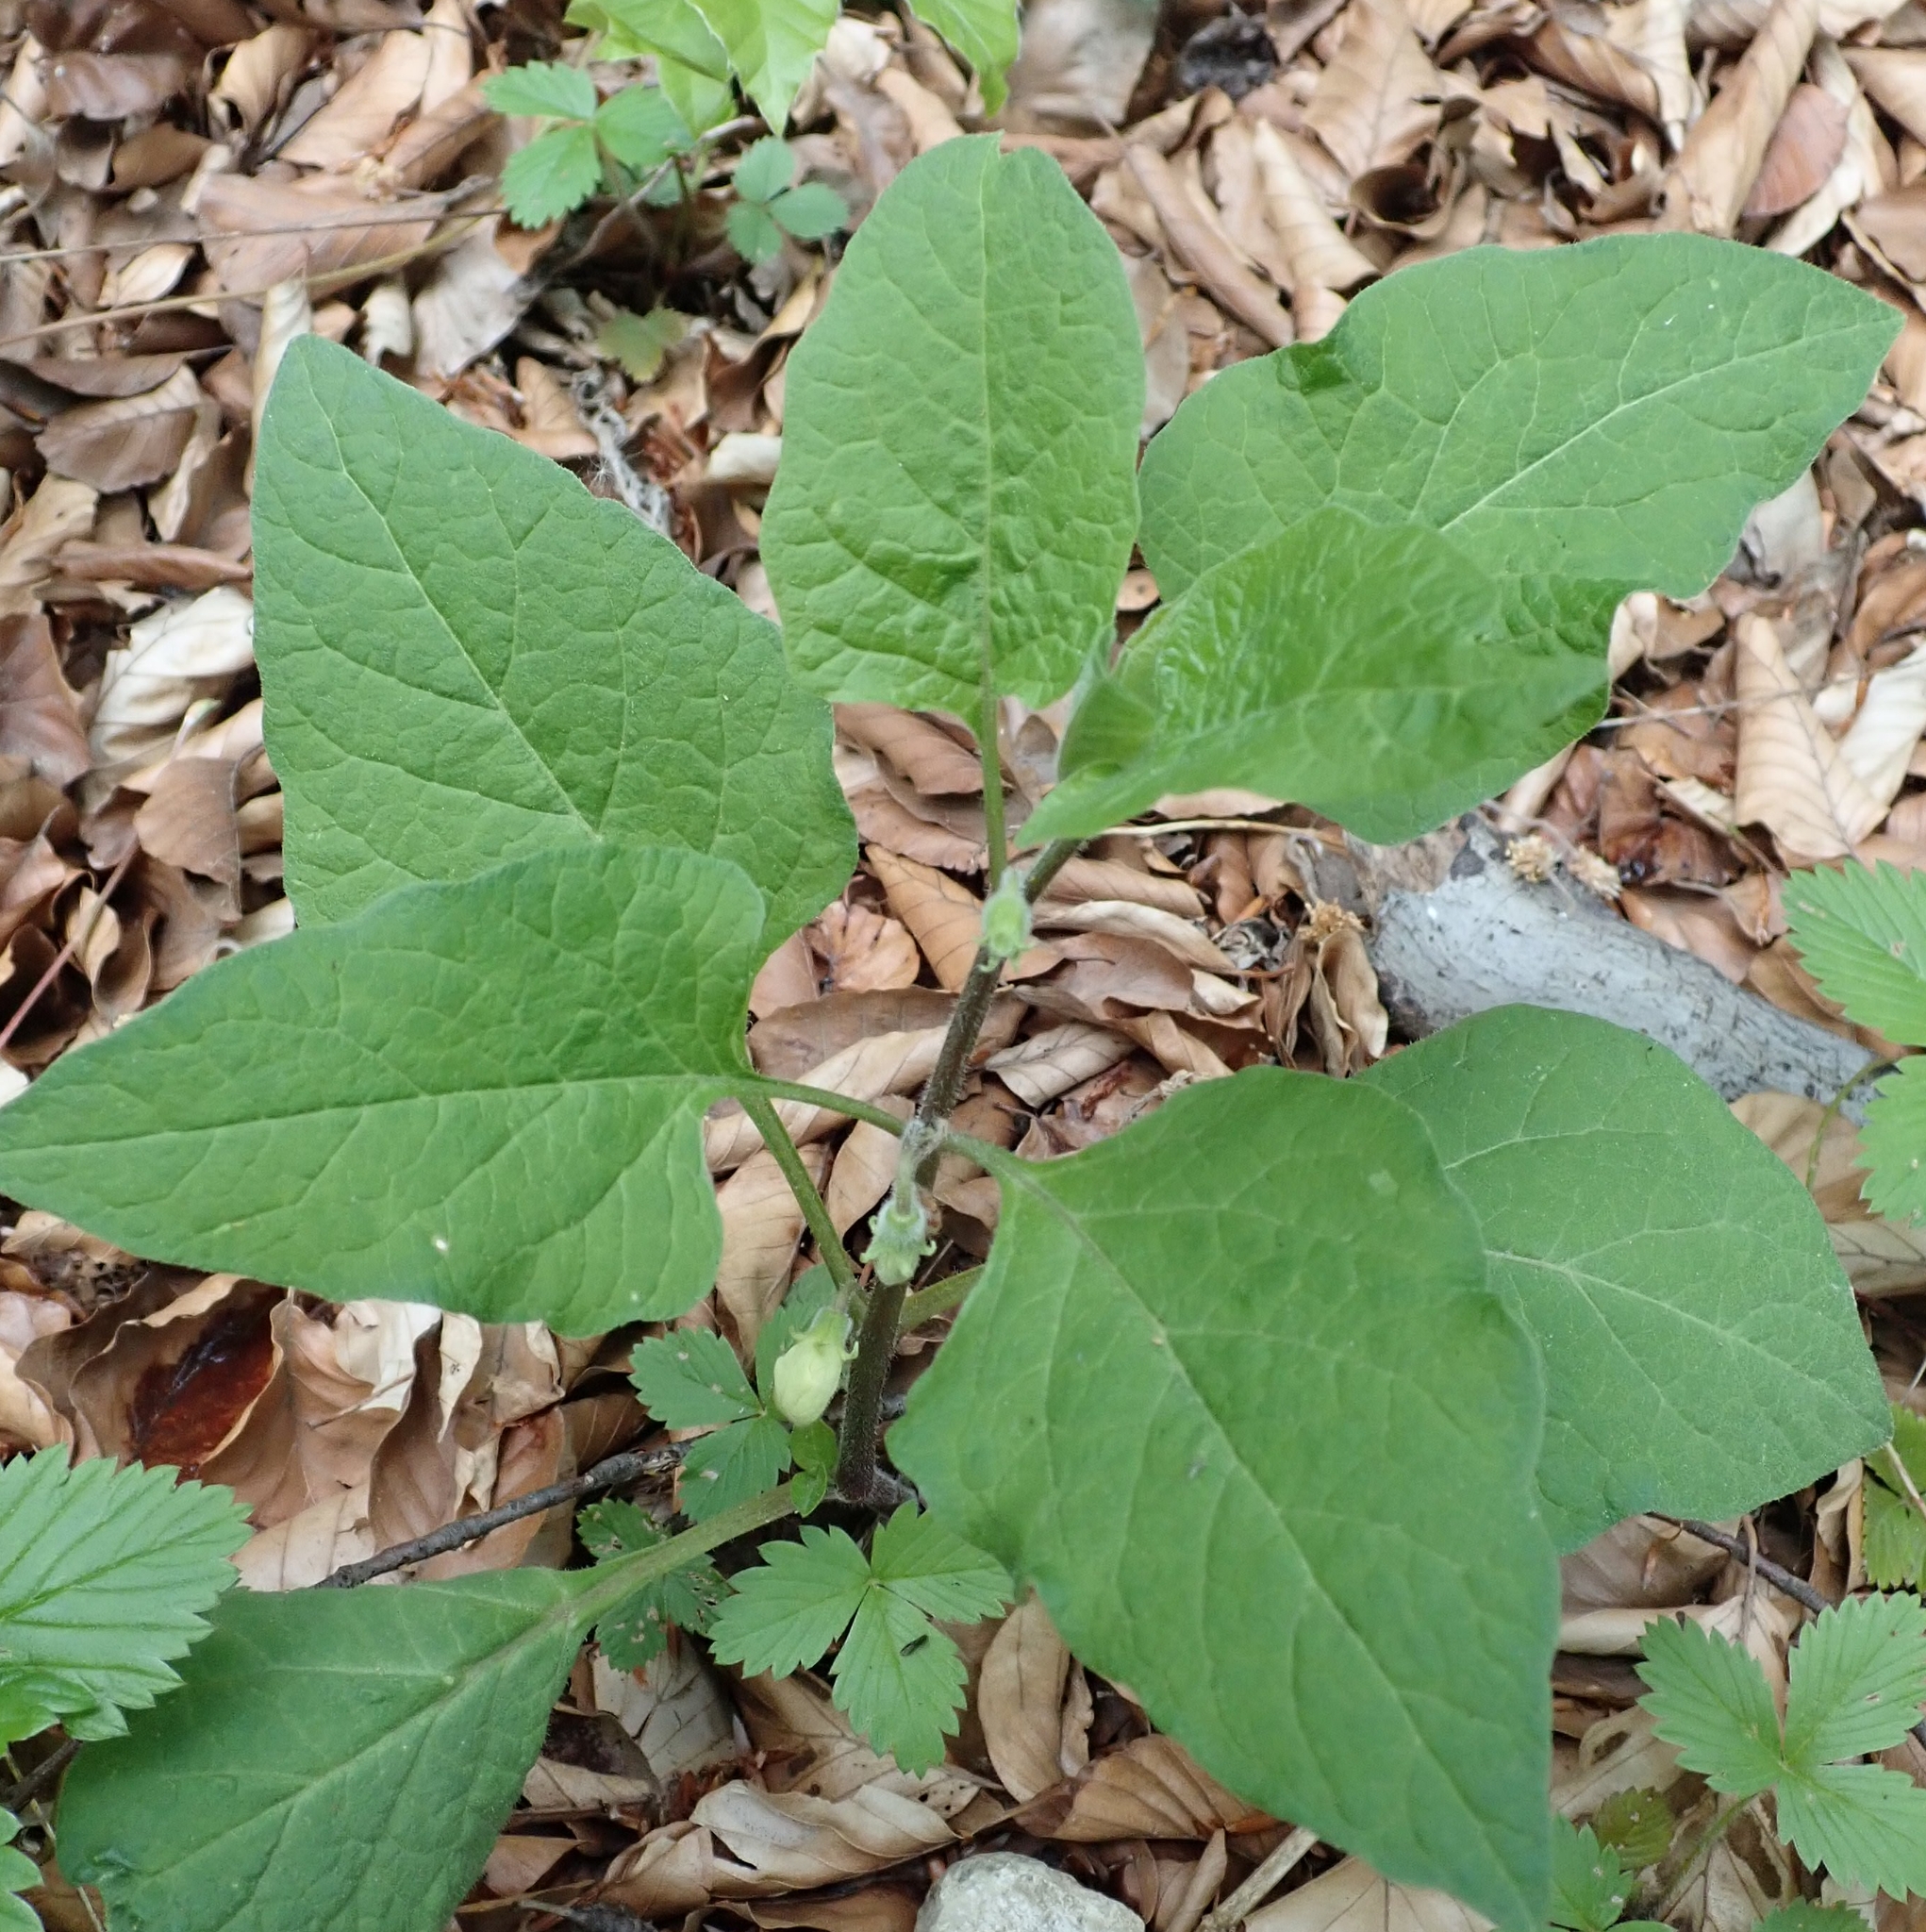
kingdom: Plantae
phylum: Tracheophyta
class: Magnoliopsida
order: Solanales
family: Solanaceae
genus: Alkekengi
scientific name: Alkekengi officinarum
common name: Japanese-lantern
